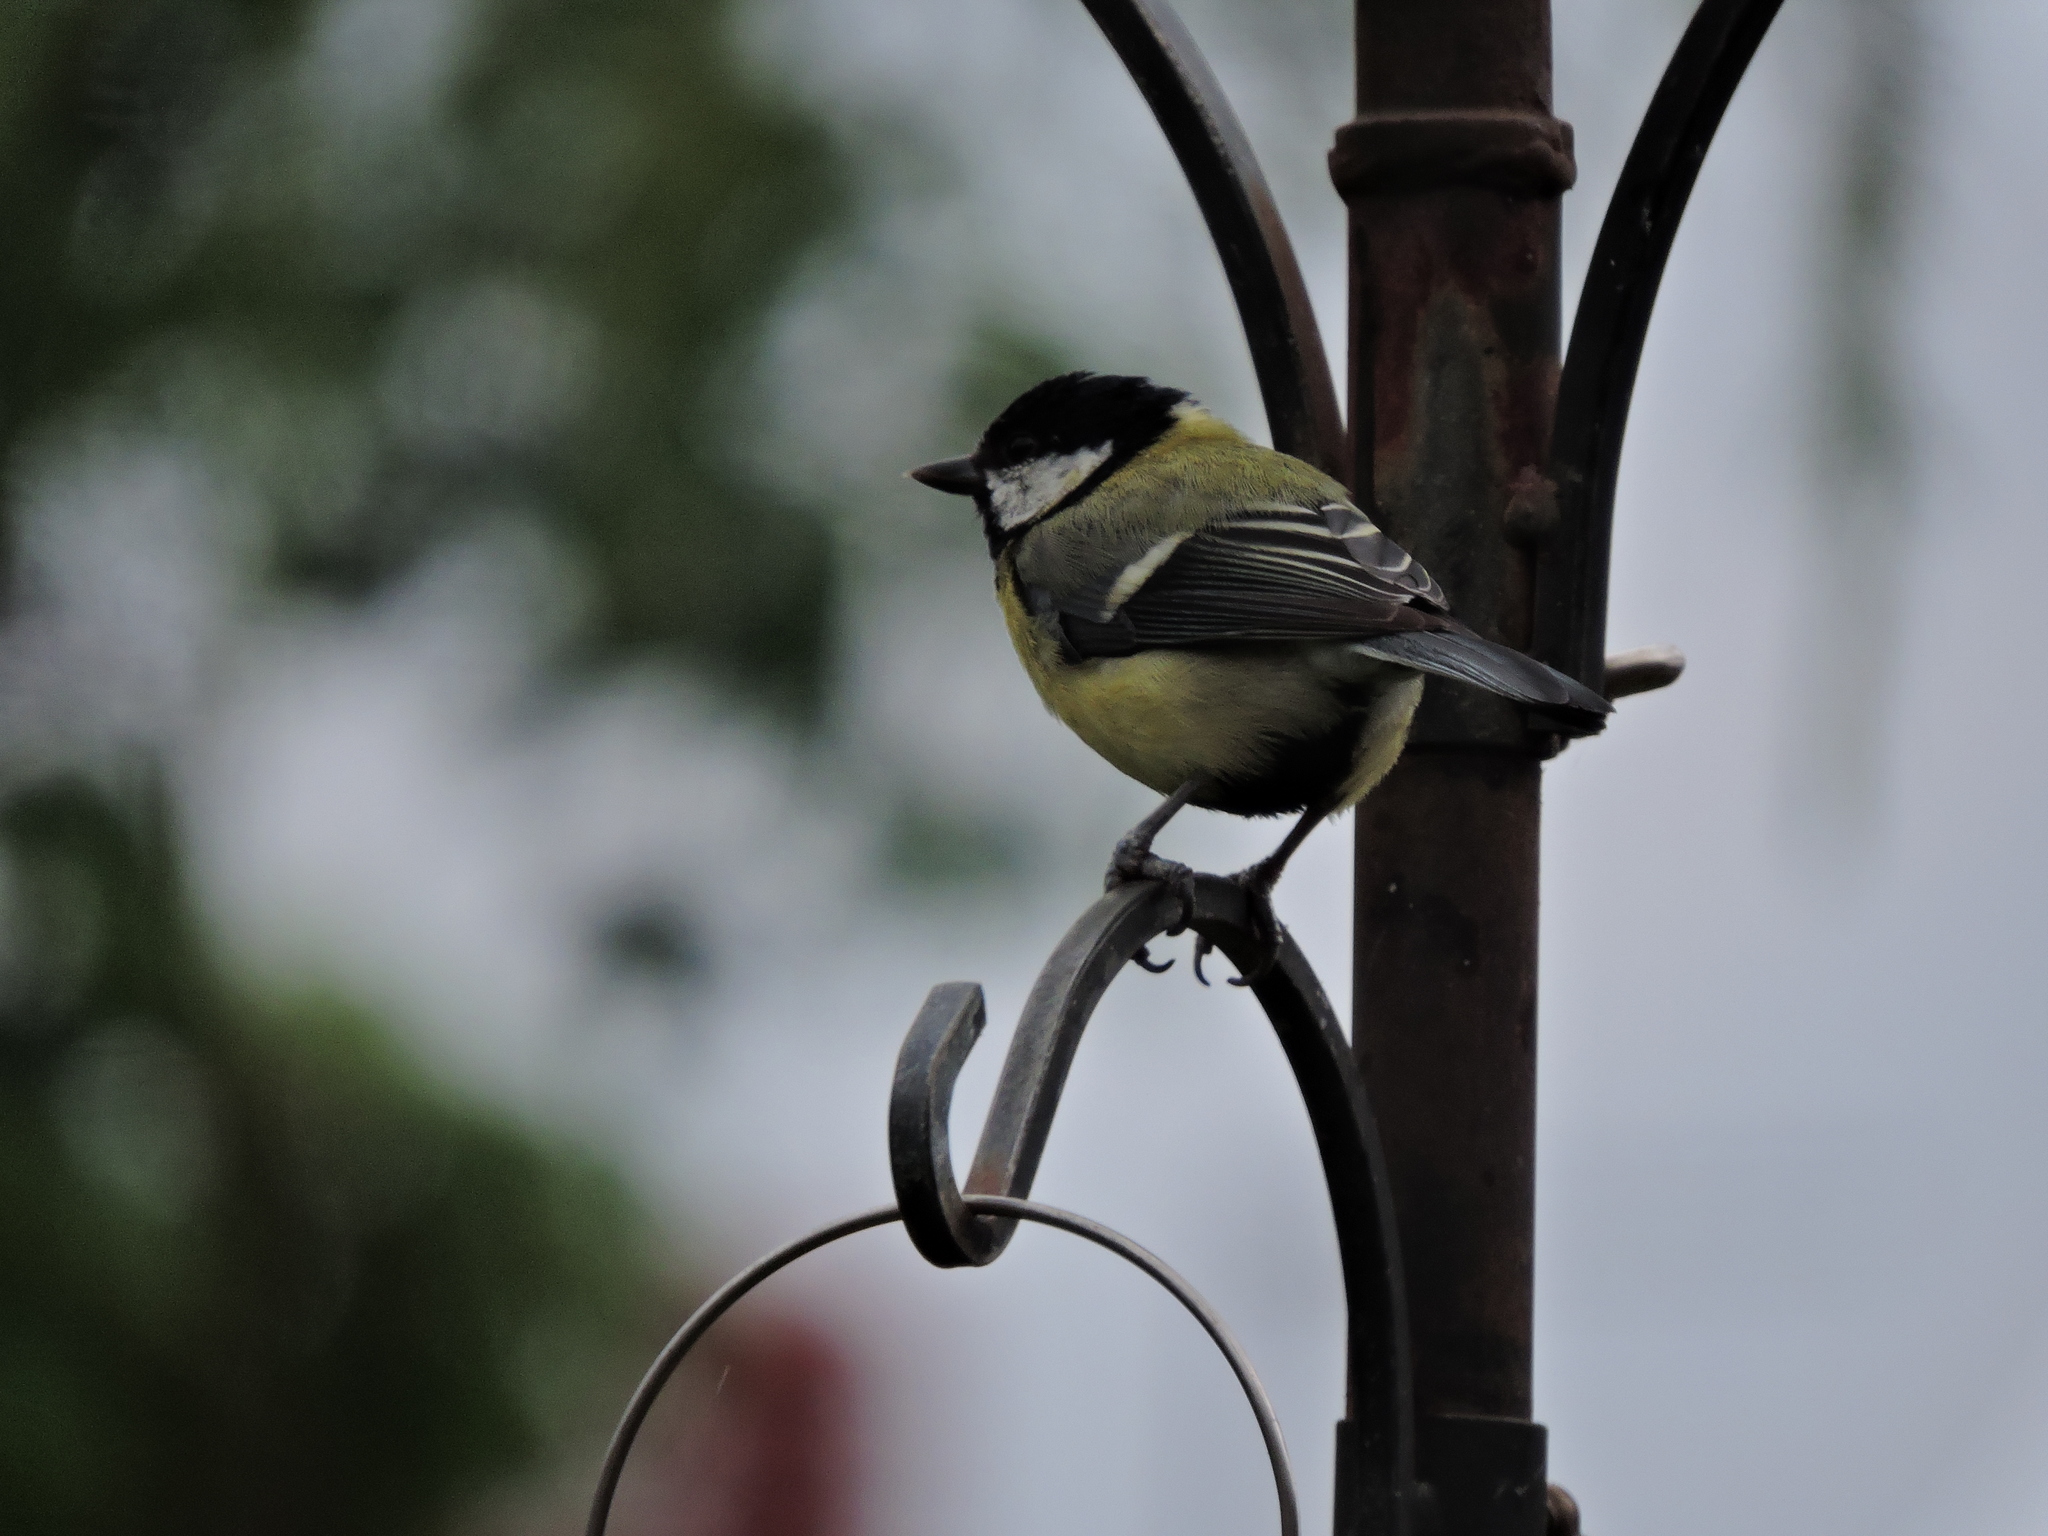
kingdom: Animalia
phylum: Chordata
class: Aves
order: Passeriformes
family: Paridae
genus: Parus
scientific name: Parus major
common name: Great tit
